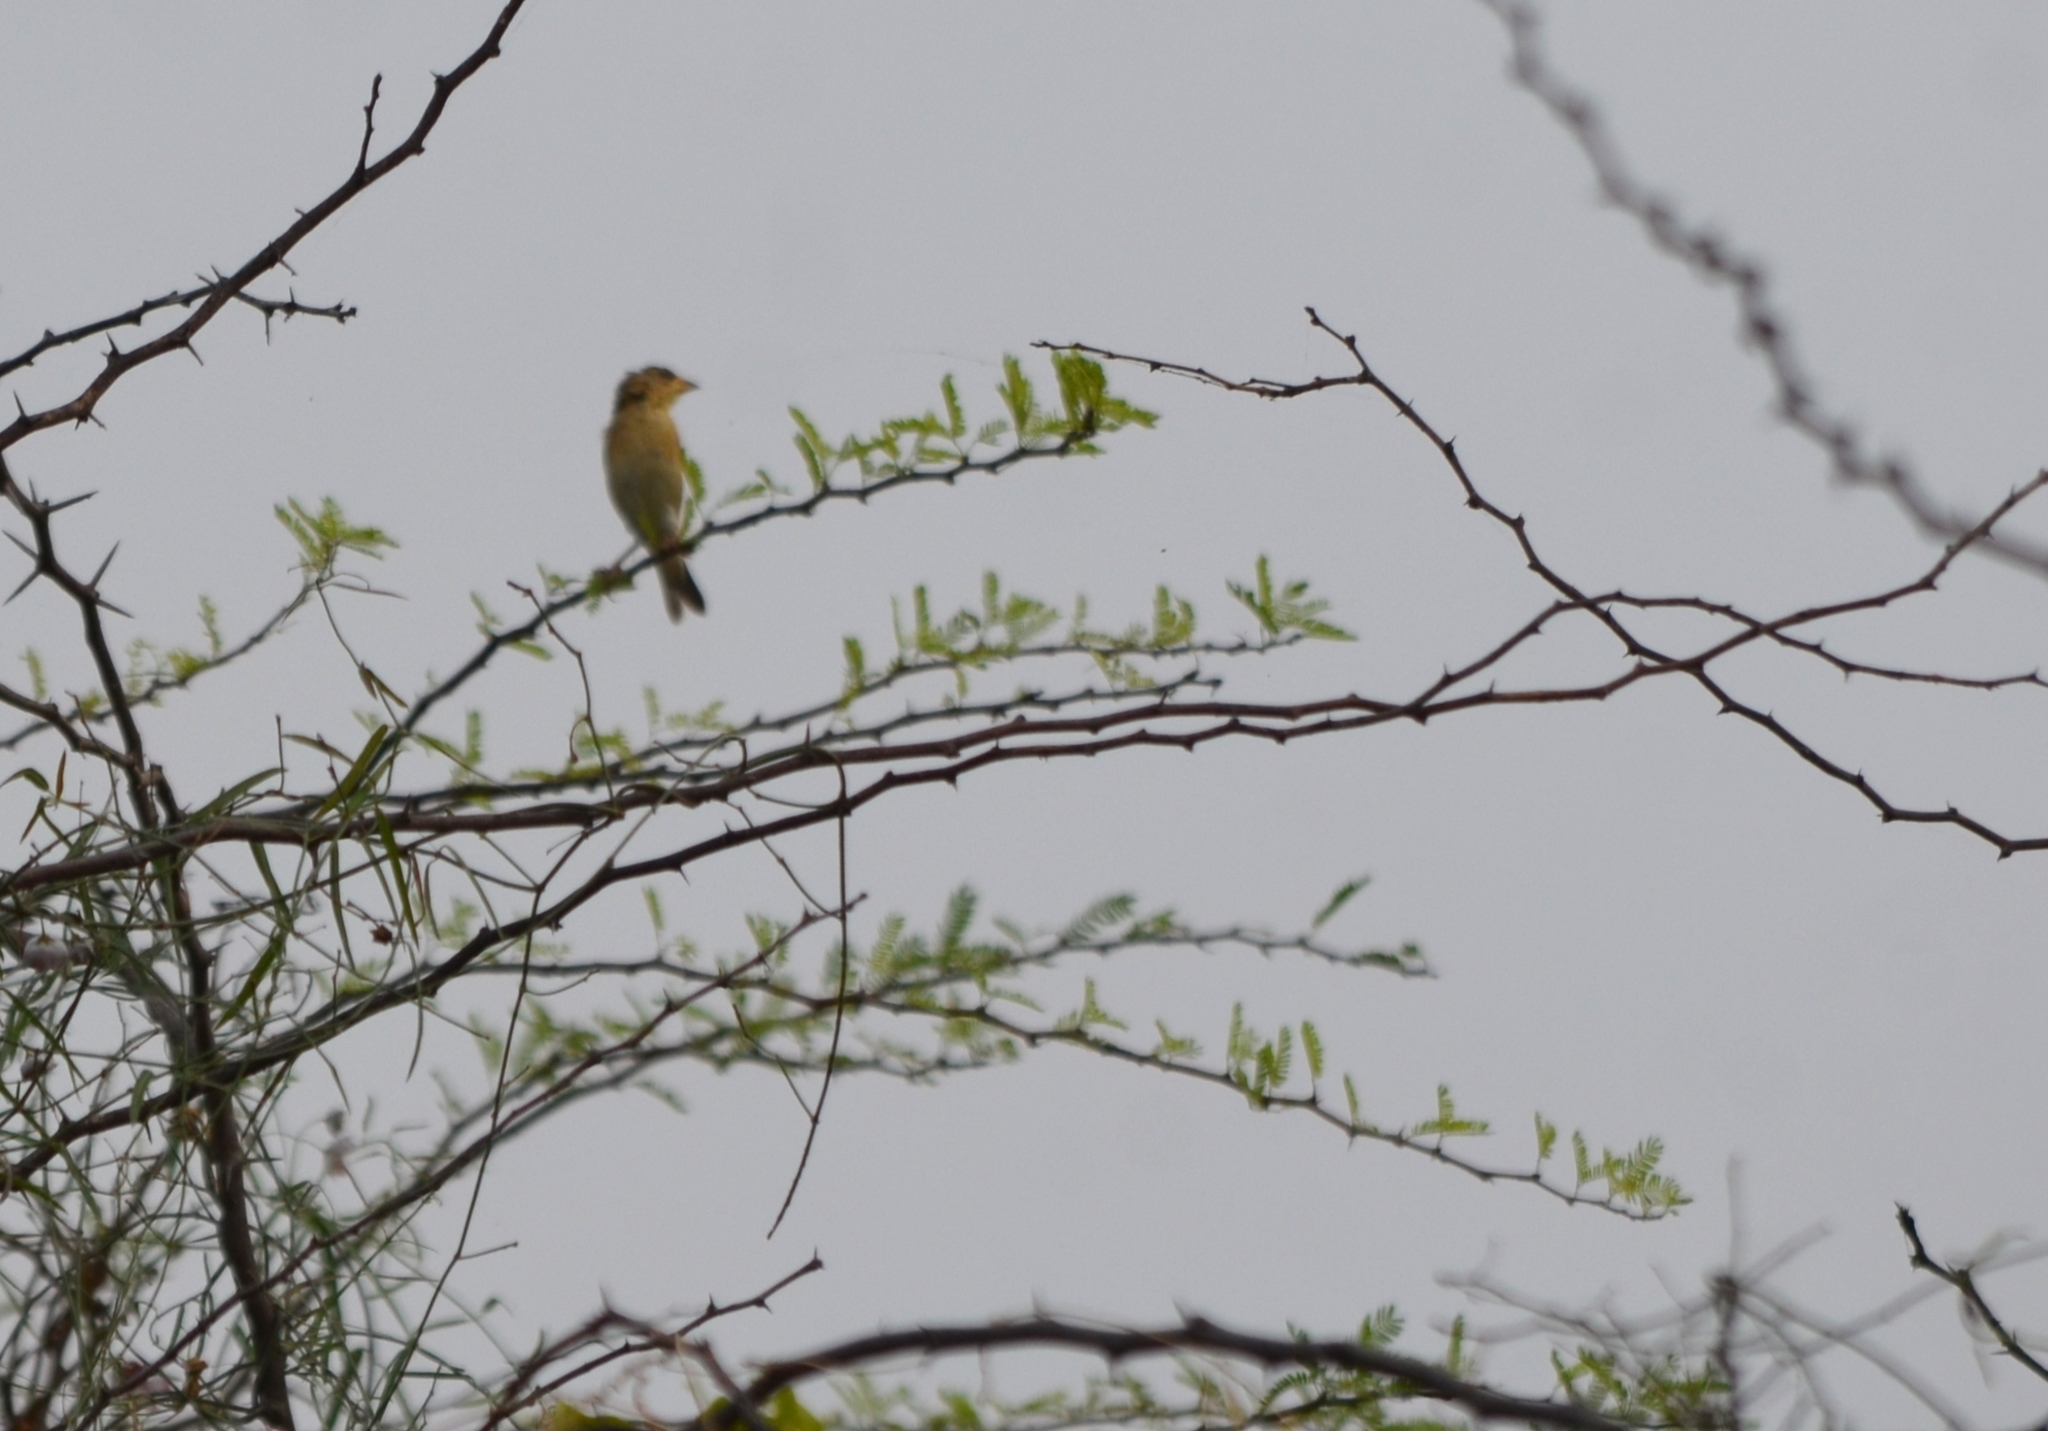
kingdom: Animalia
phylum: Chordata
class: Aves
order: Passeriformes
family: Ploceidae
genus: Ploceus
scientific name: Ploceus philippinus
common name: Baya weaver
